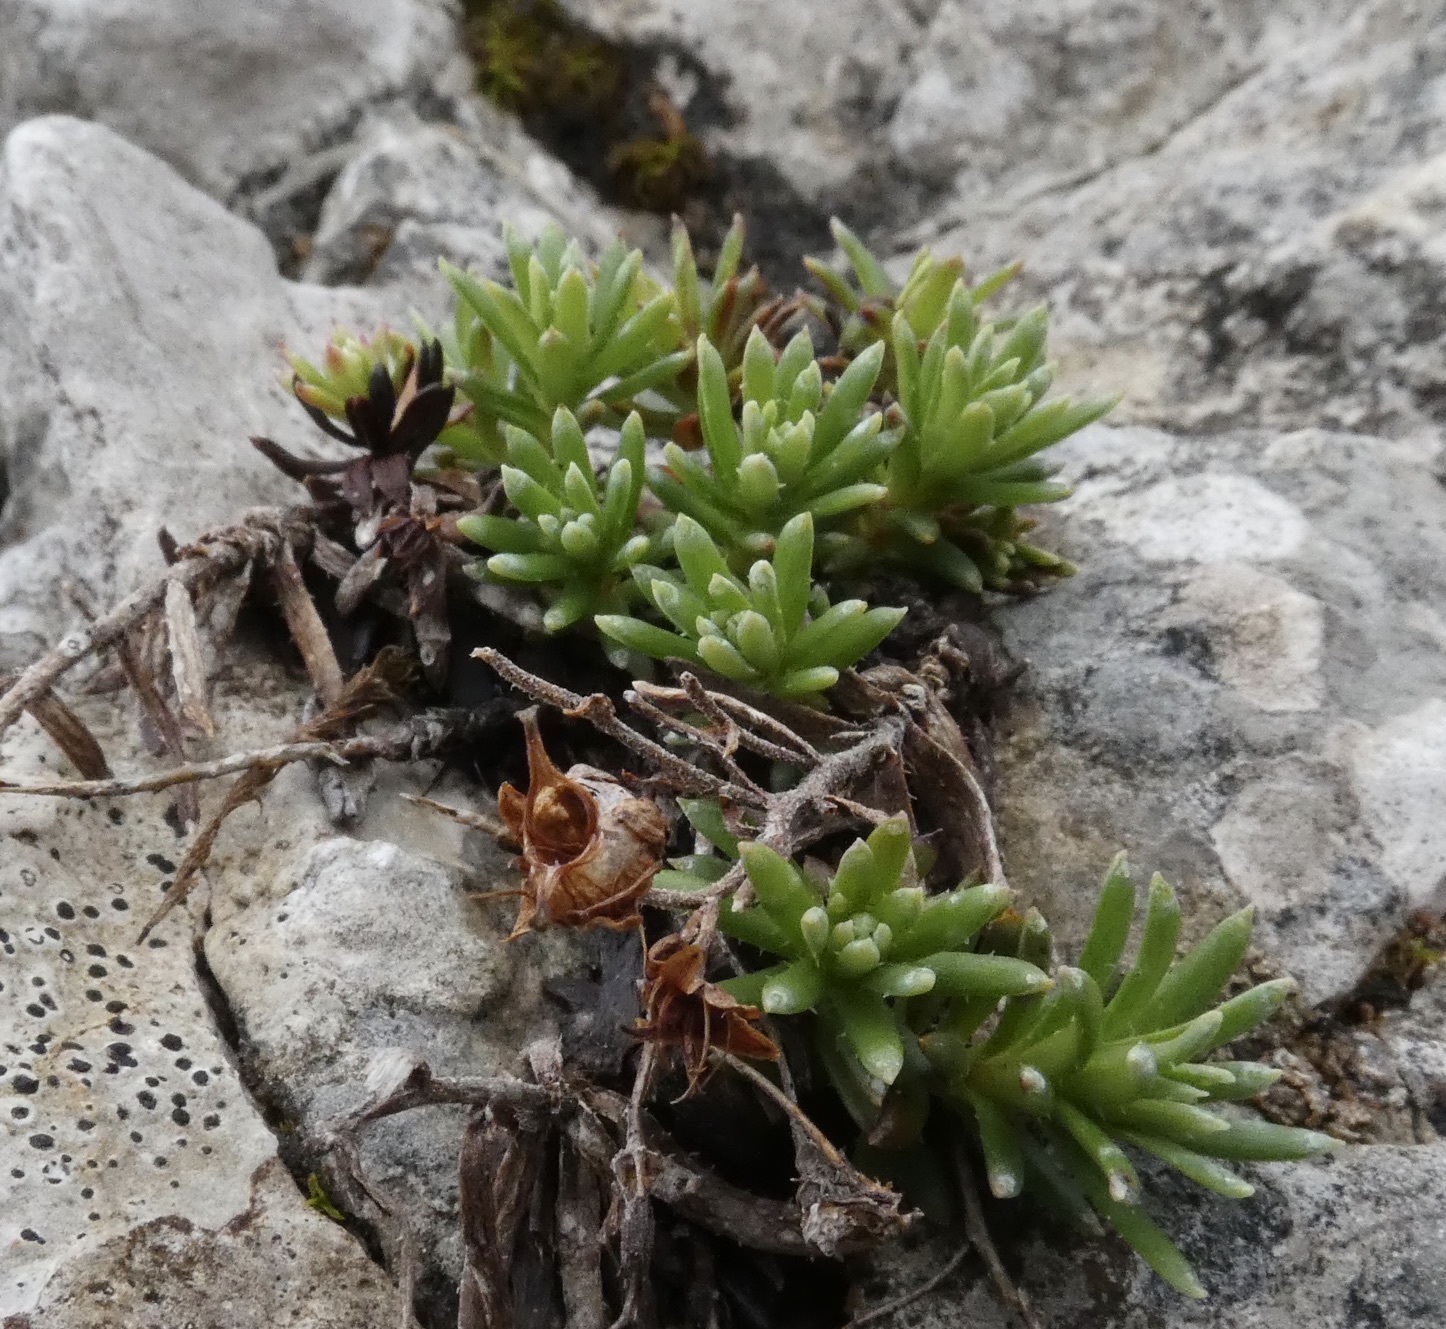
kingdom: Plantae
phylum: Tracheophyta
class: Magnoliopsida
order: Saxifragales
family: Saxifragaceae
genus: Saxifraga
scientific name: Saxifraga aizoides
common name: Yellow mountain saxifrage
